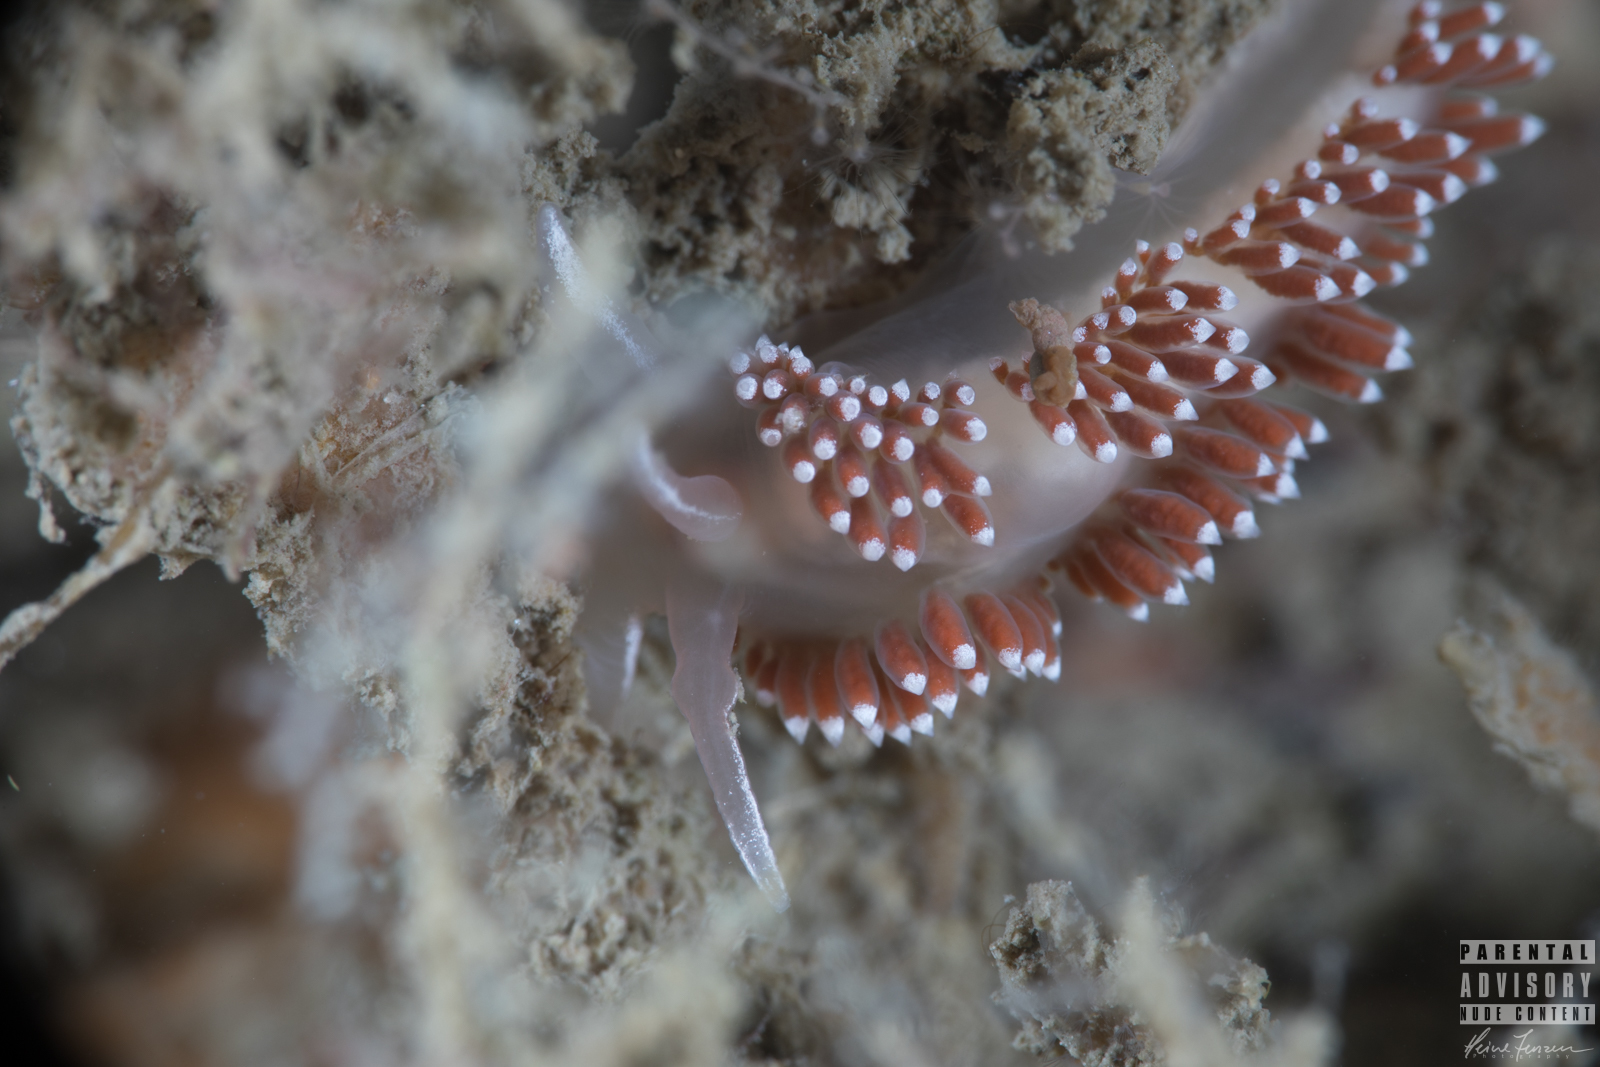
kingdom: Animalia
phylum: Mollusca
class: Gastropoda
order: Nudibranchia
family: Coryphellidae
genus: Coryphella
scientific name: Coryphella verrucosa
